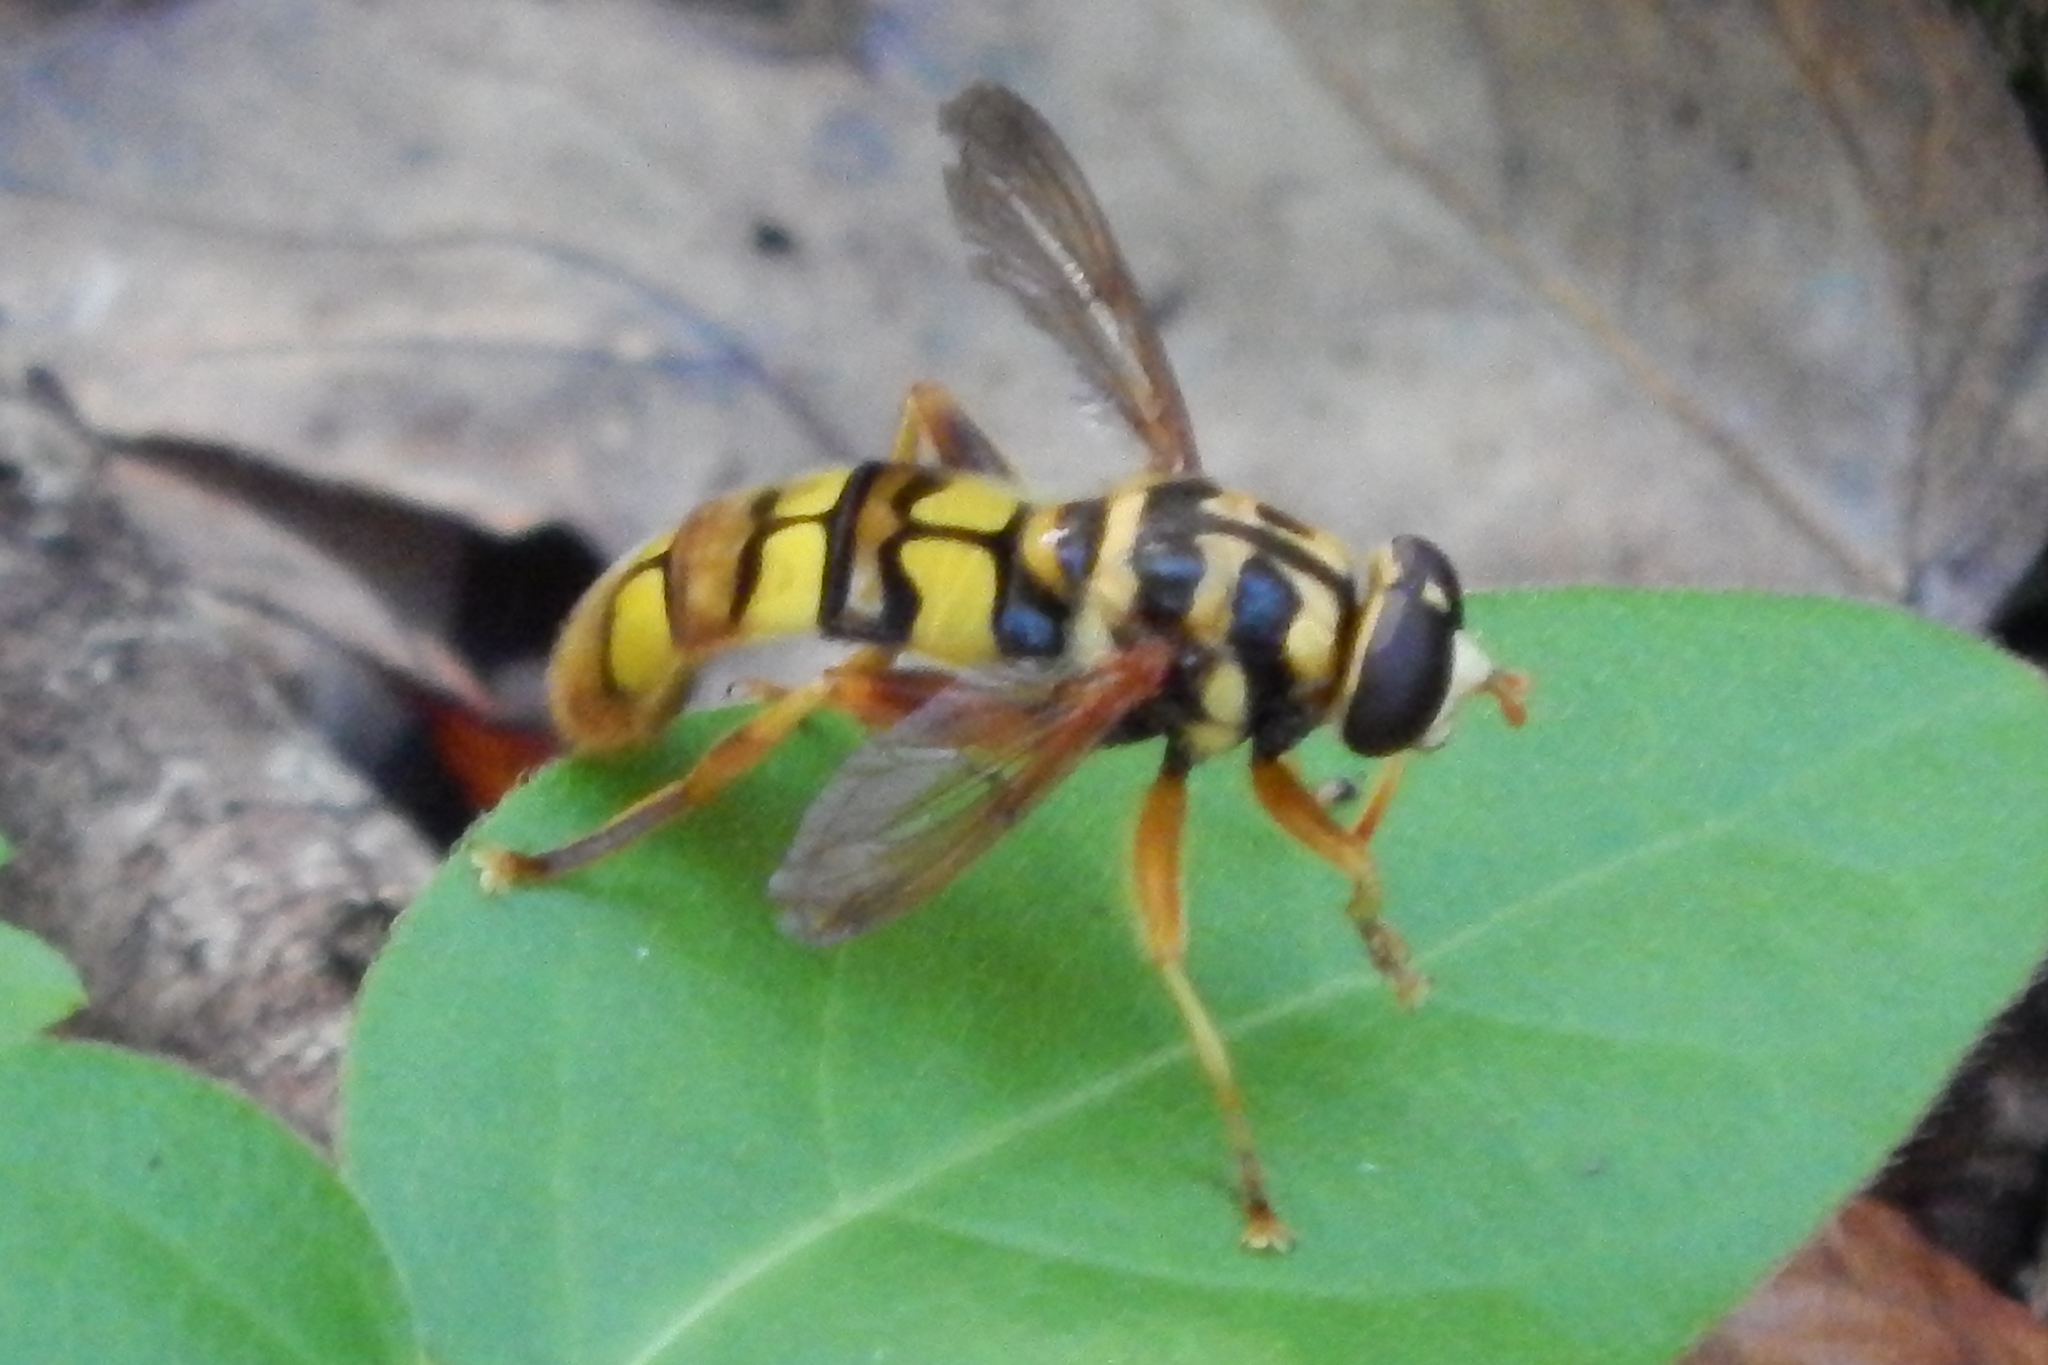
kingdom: Animalia
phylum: Arthropoda
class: Insecta
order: Diptera
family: Syrphidae
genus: Milesia
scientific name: Milesia virginiensis
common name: Virginia giant
